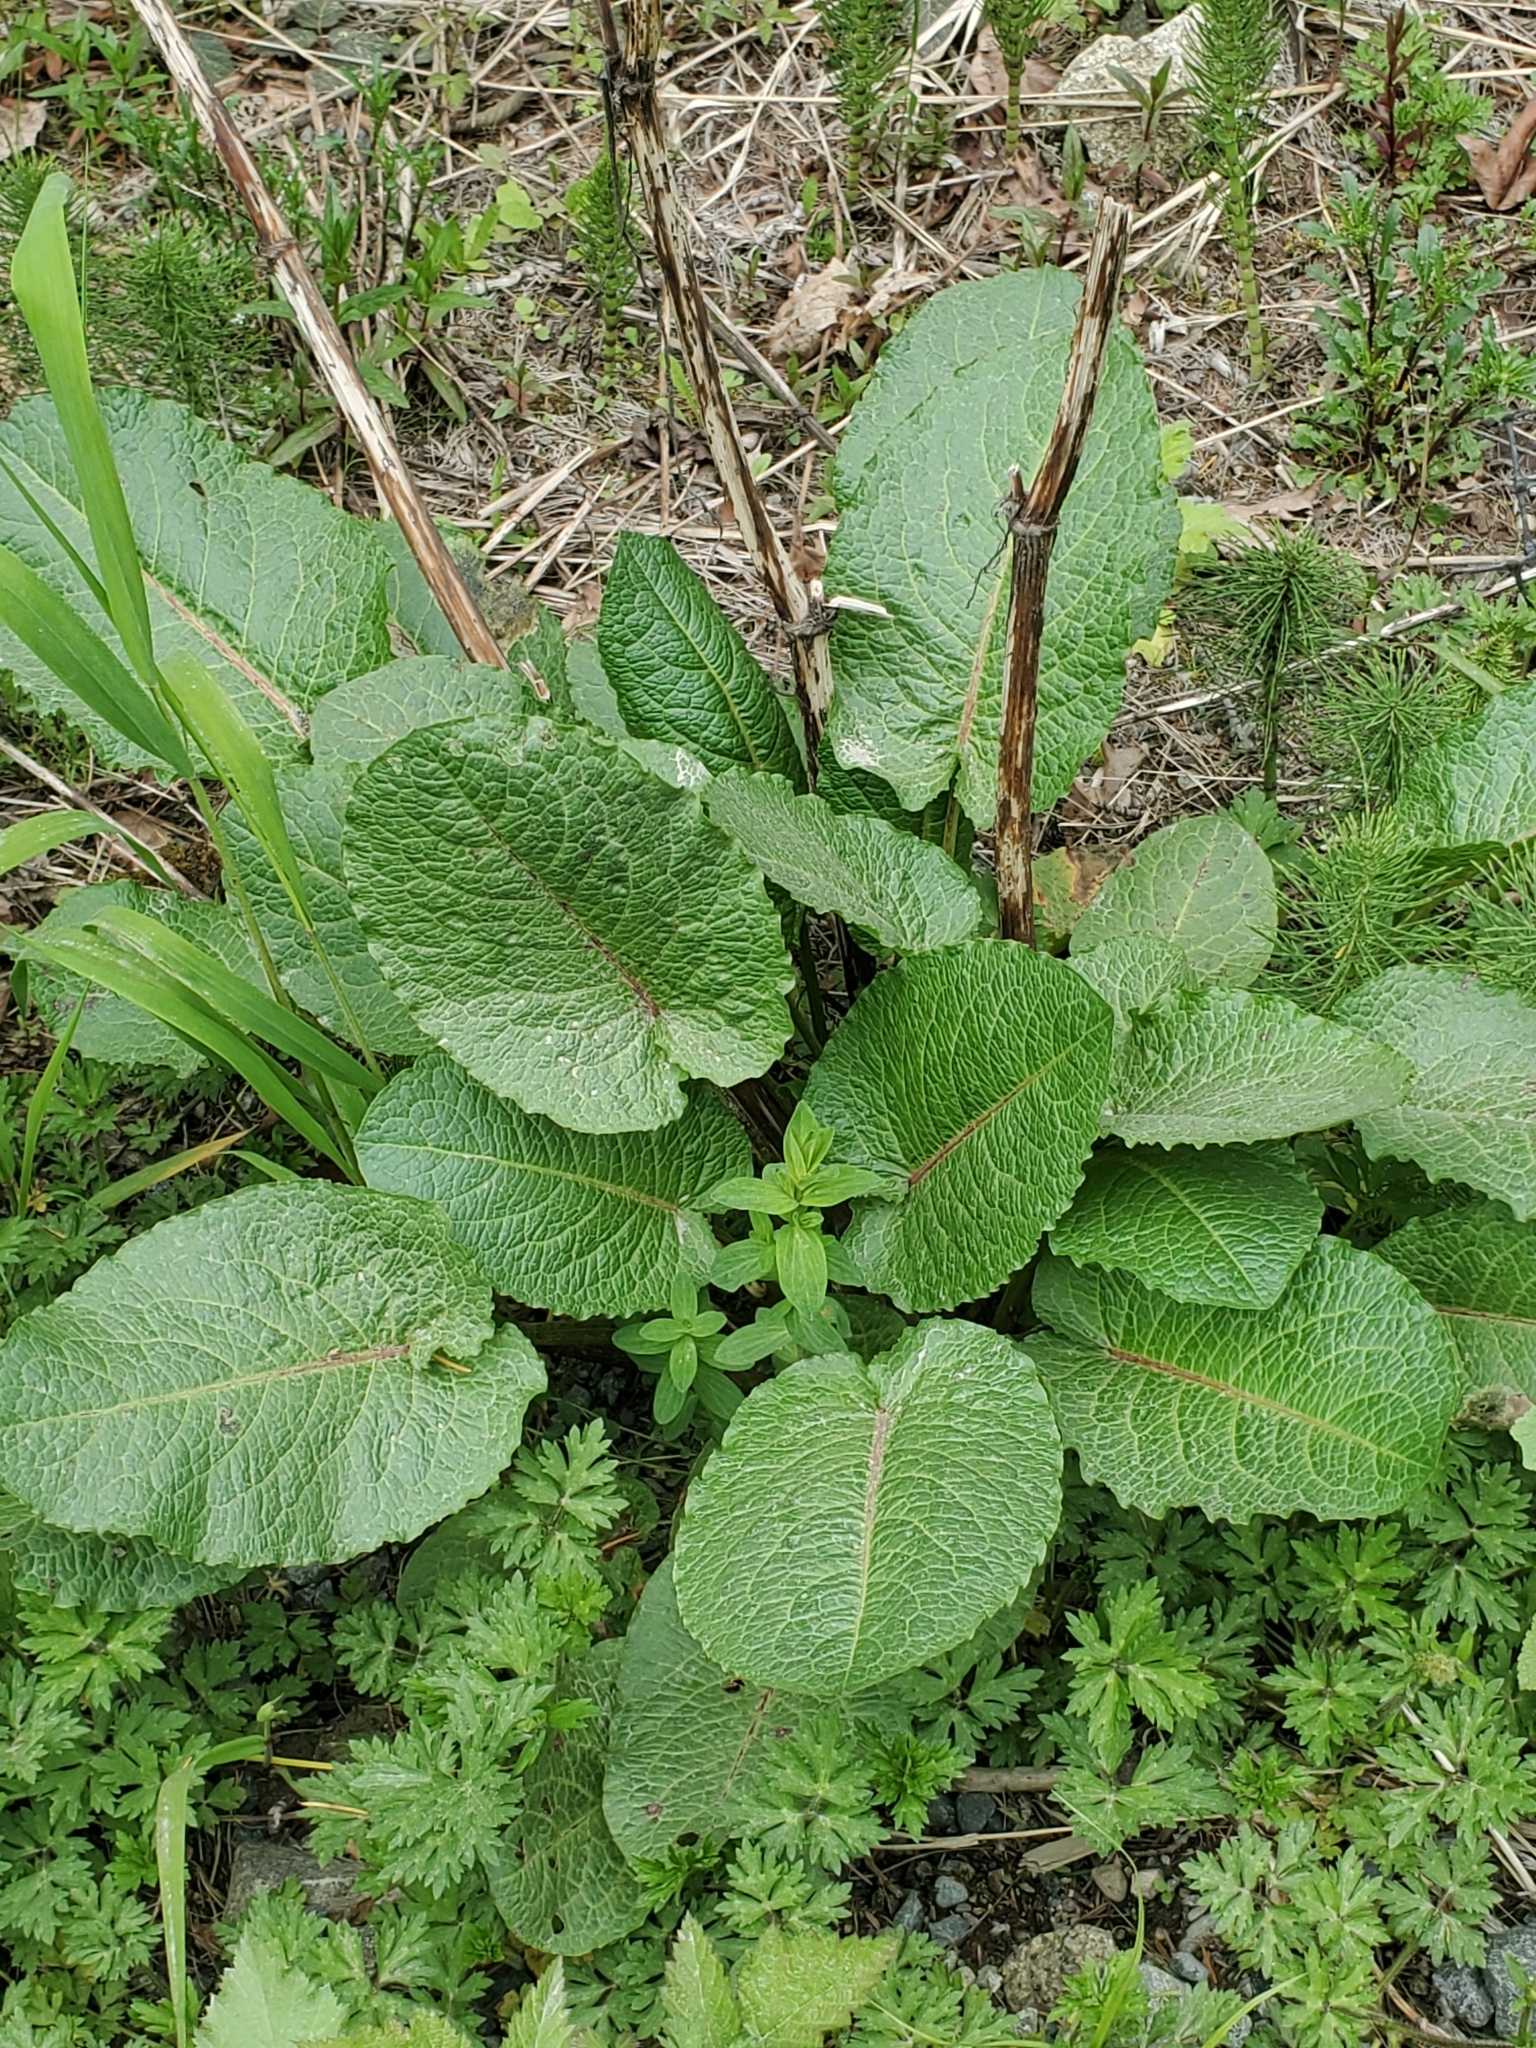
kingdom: Plantae
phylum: Tracheophyta
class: Magnoliopsida
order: Caryophyllales
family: Polygonaceae
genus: Rumex
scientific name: Rumex obtusifolius
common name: Bitter dock
